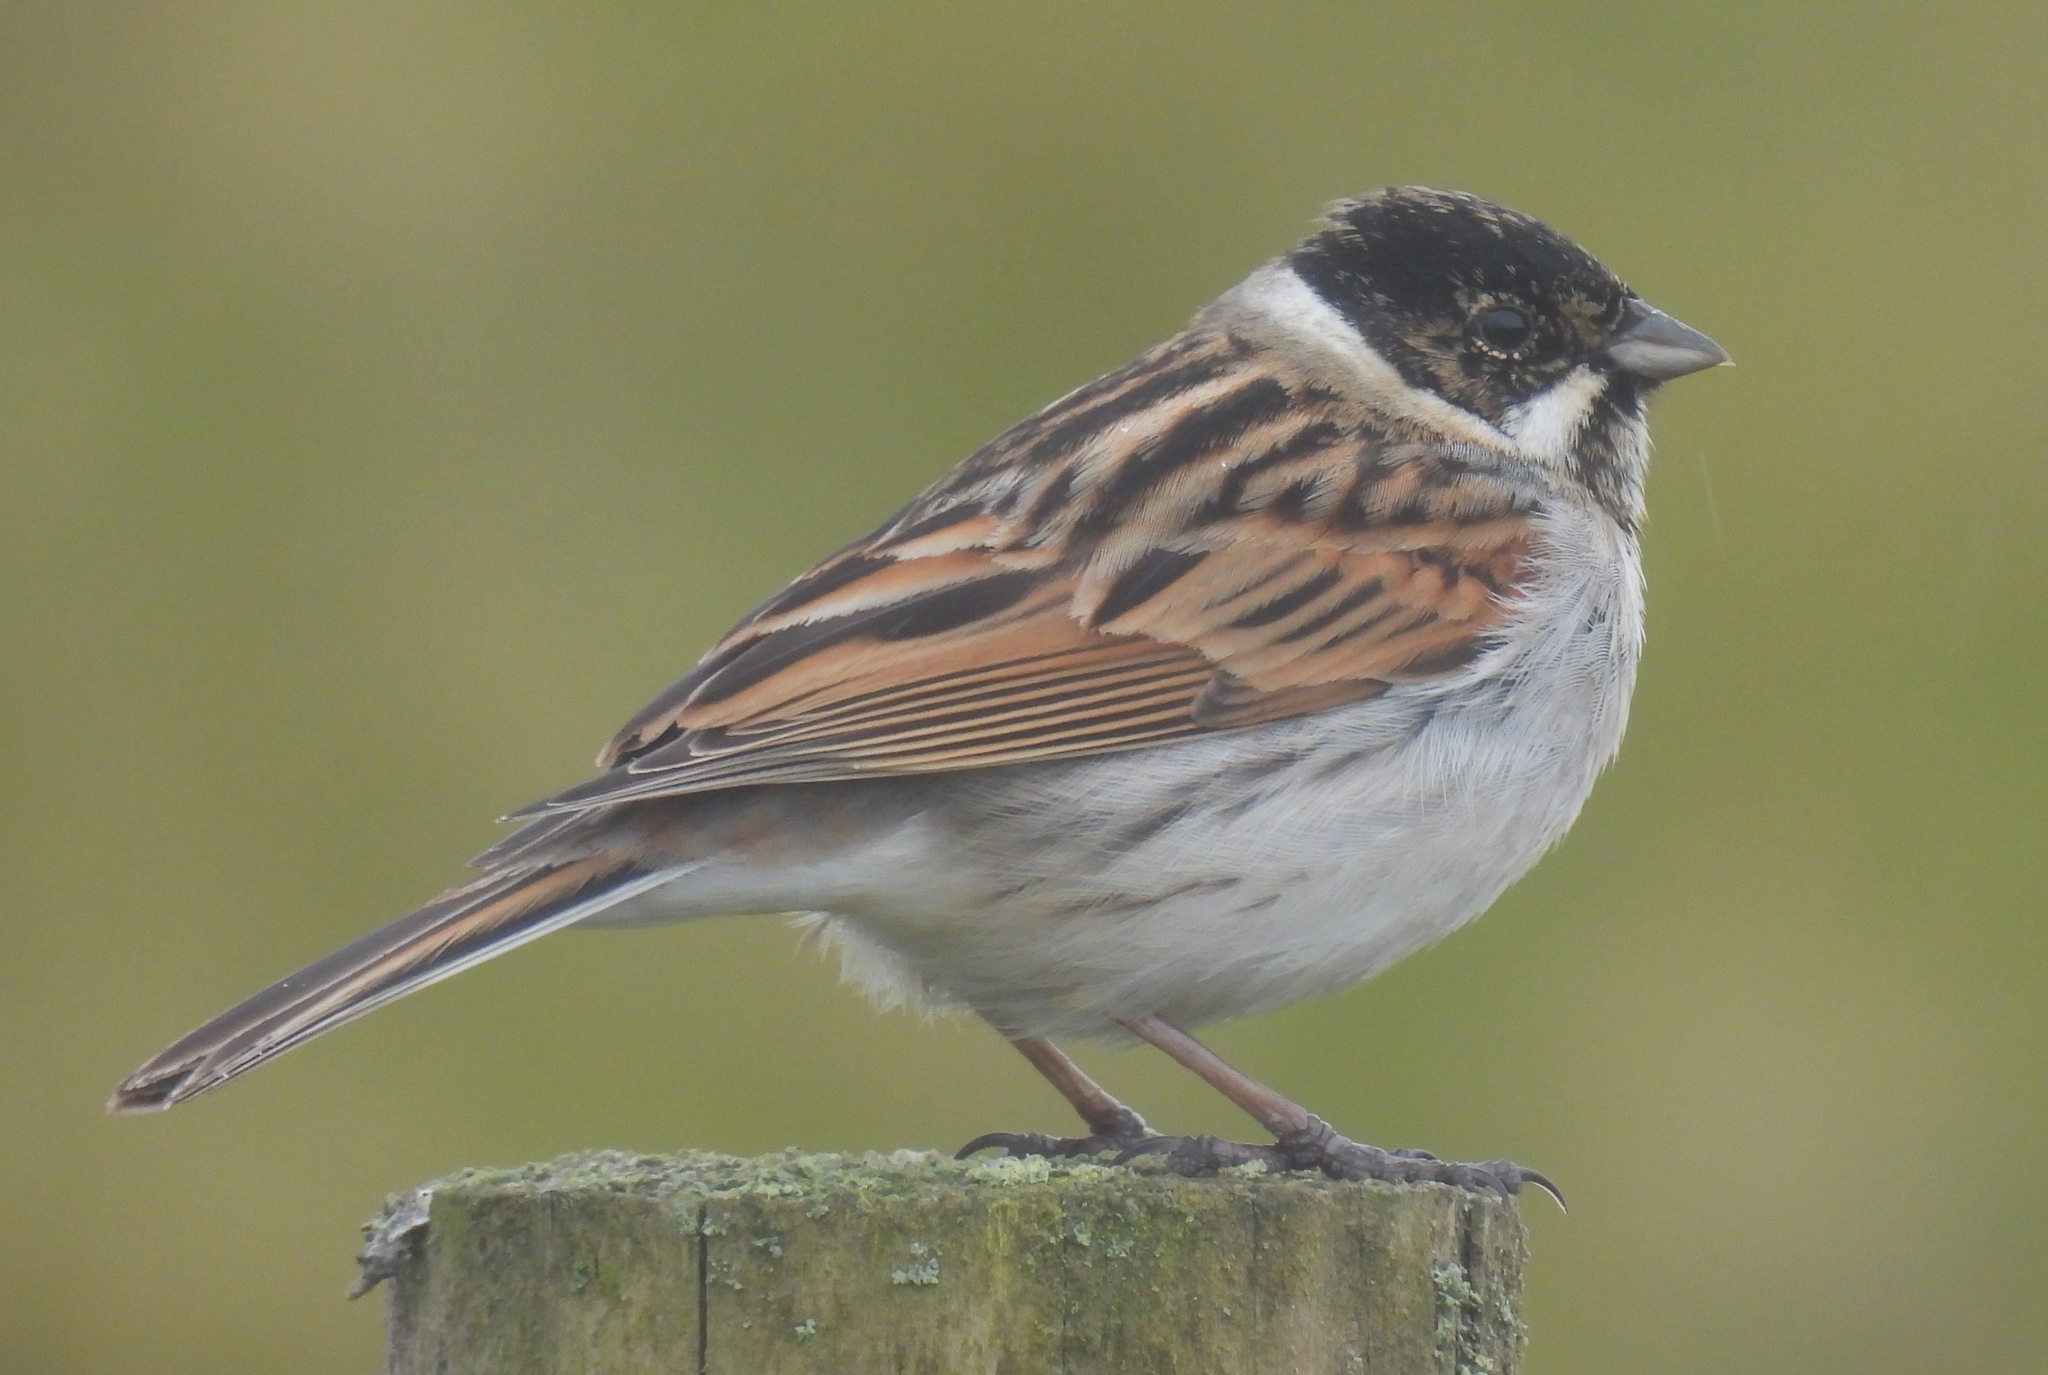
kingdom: Animalia
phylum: Chordata
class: Aves
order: Passeriformes
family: Emberizidae
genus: Emberiza
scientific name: Emberiza schoeniclus
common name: Reed bunting
